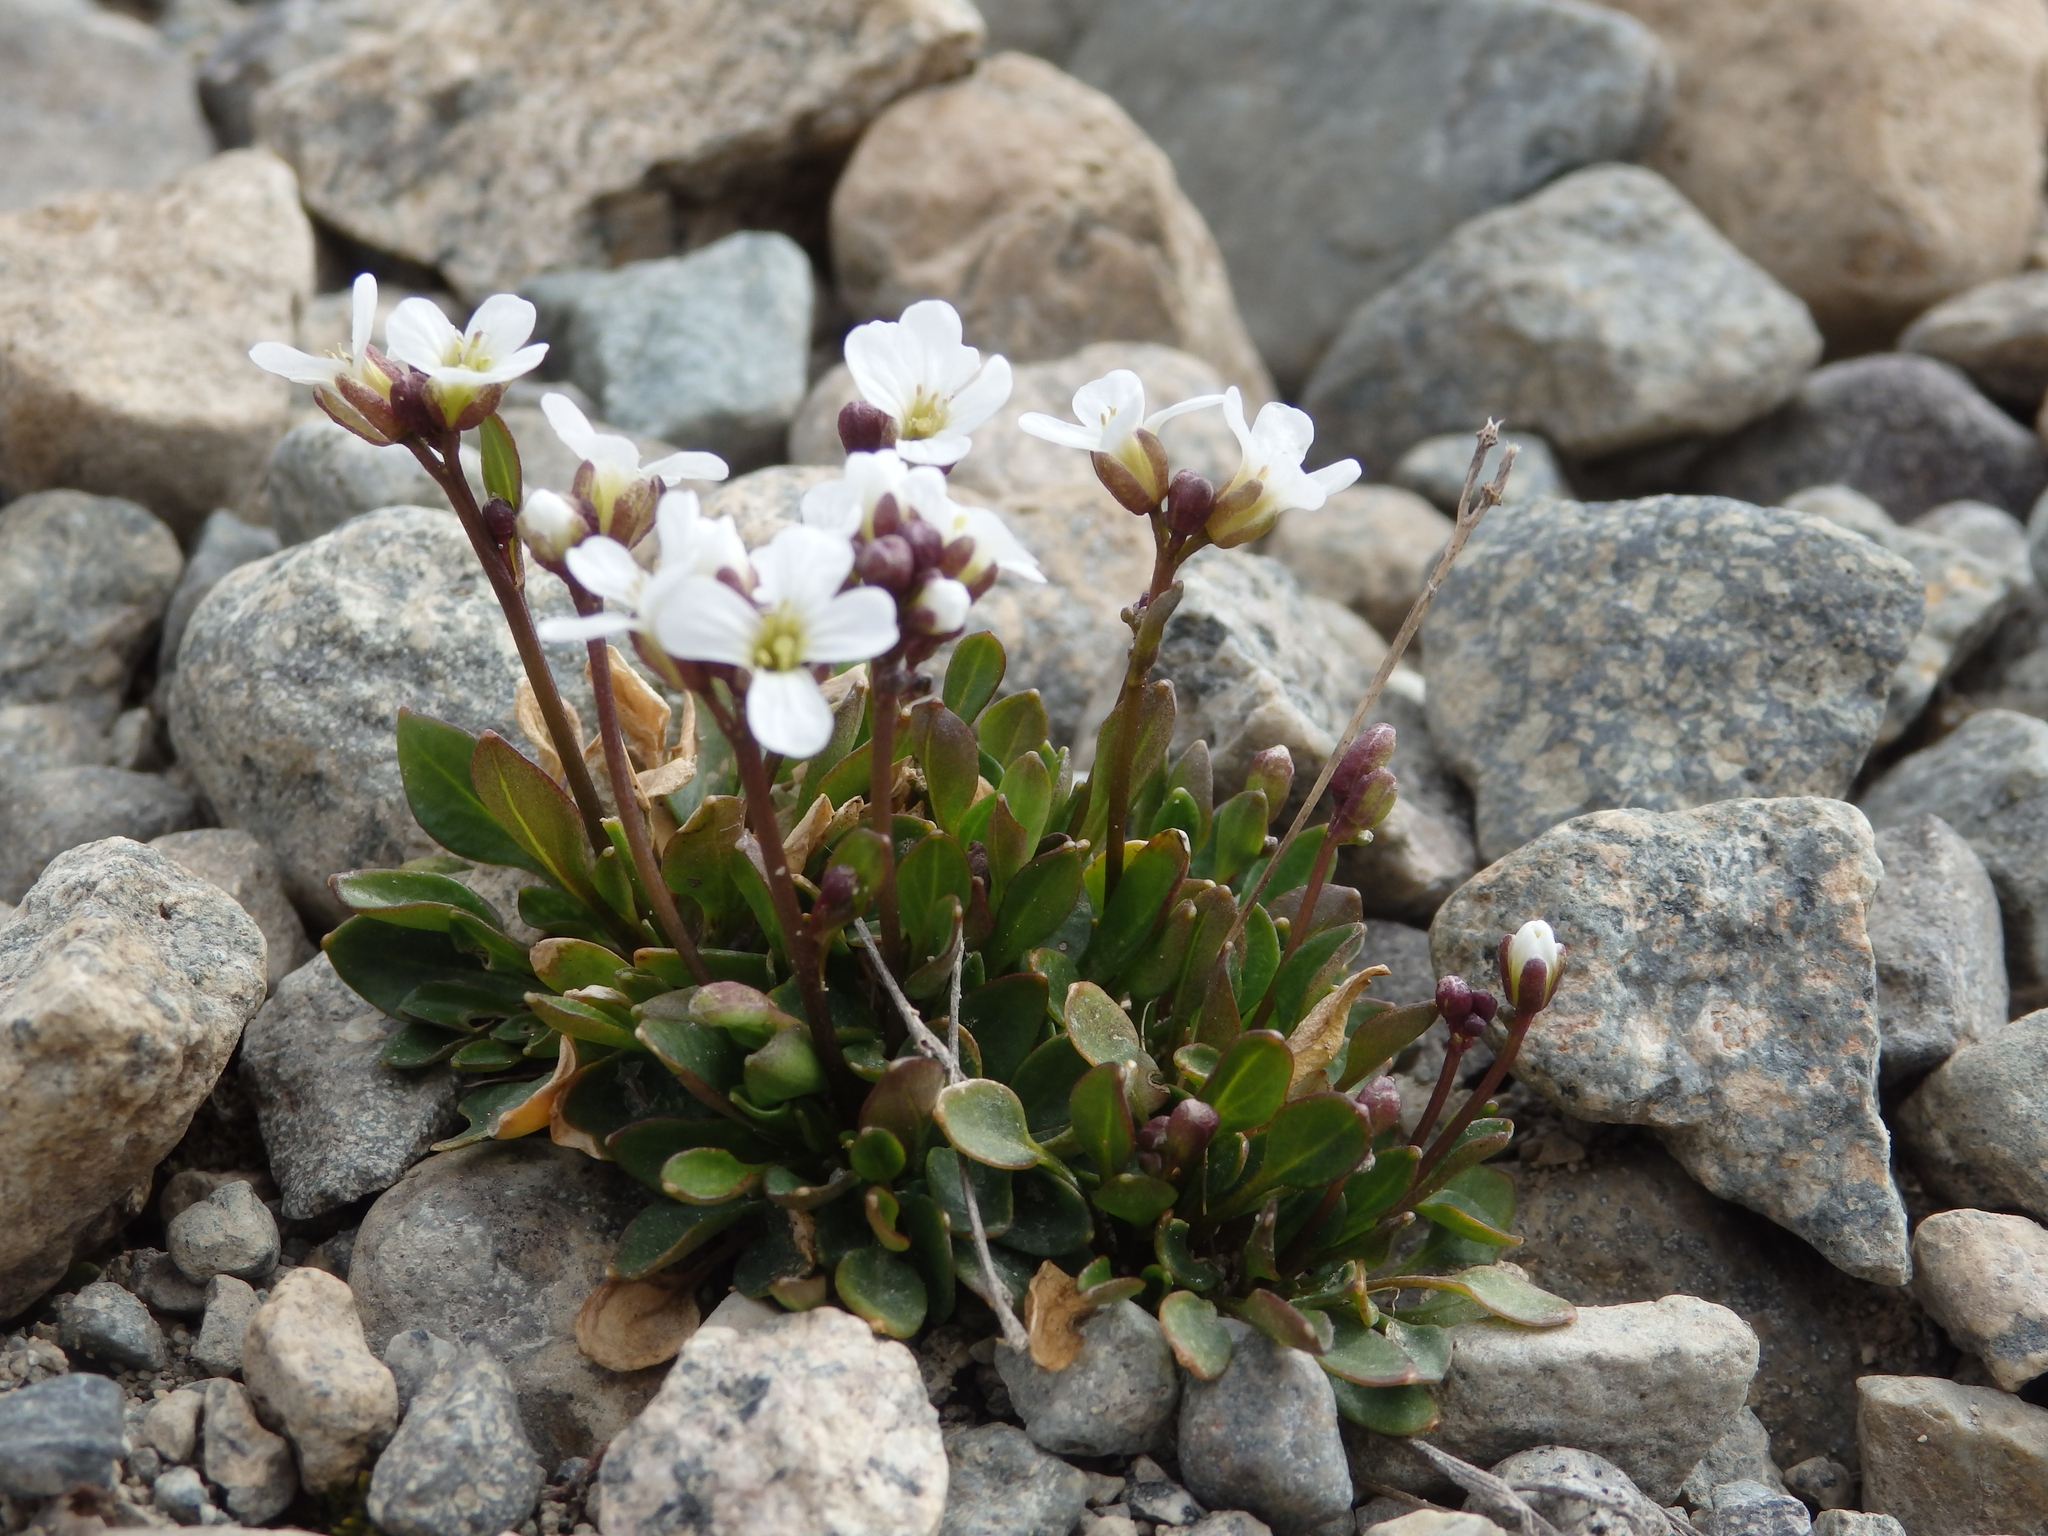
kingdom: Plantae
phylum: Tracheophyta
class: Magnoliopsida
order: Brassicales
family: Brassicaceae
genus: Cardamine
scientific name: Cardamine bellidifolia
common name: Alpine bittercress
